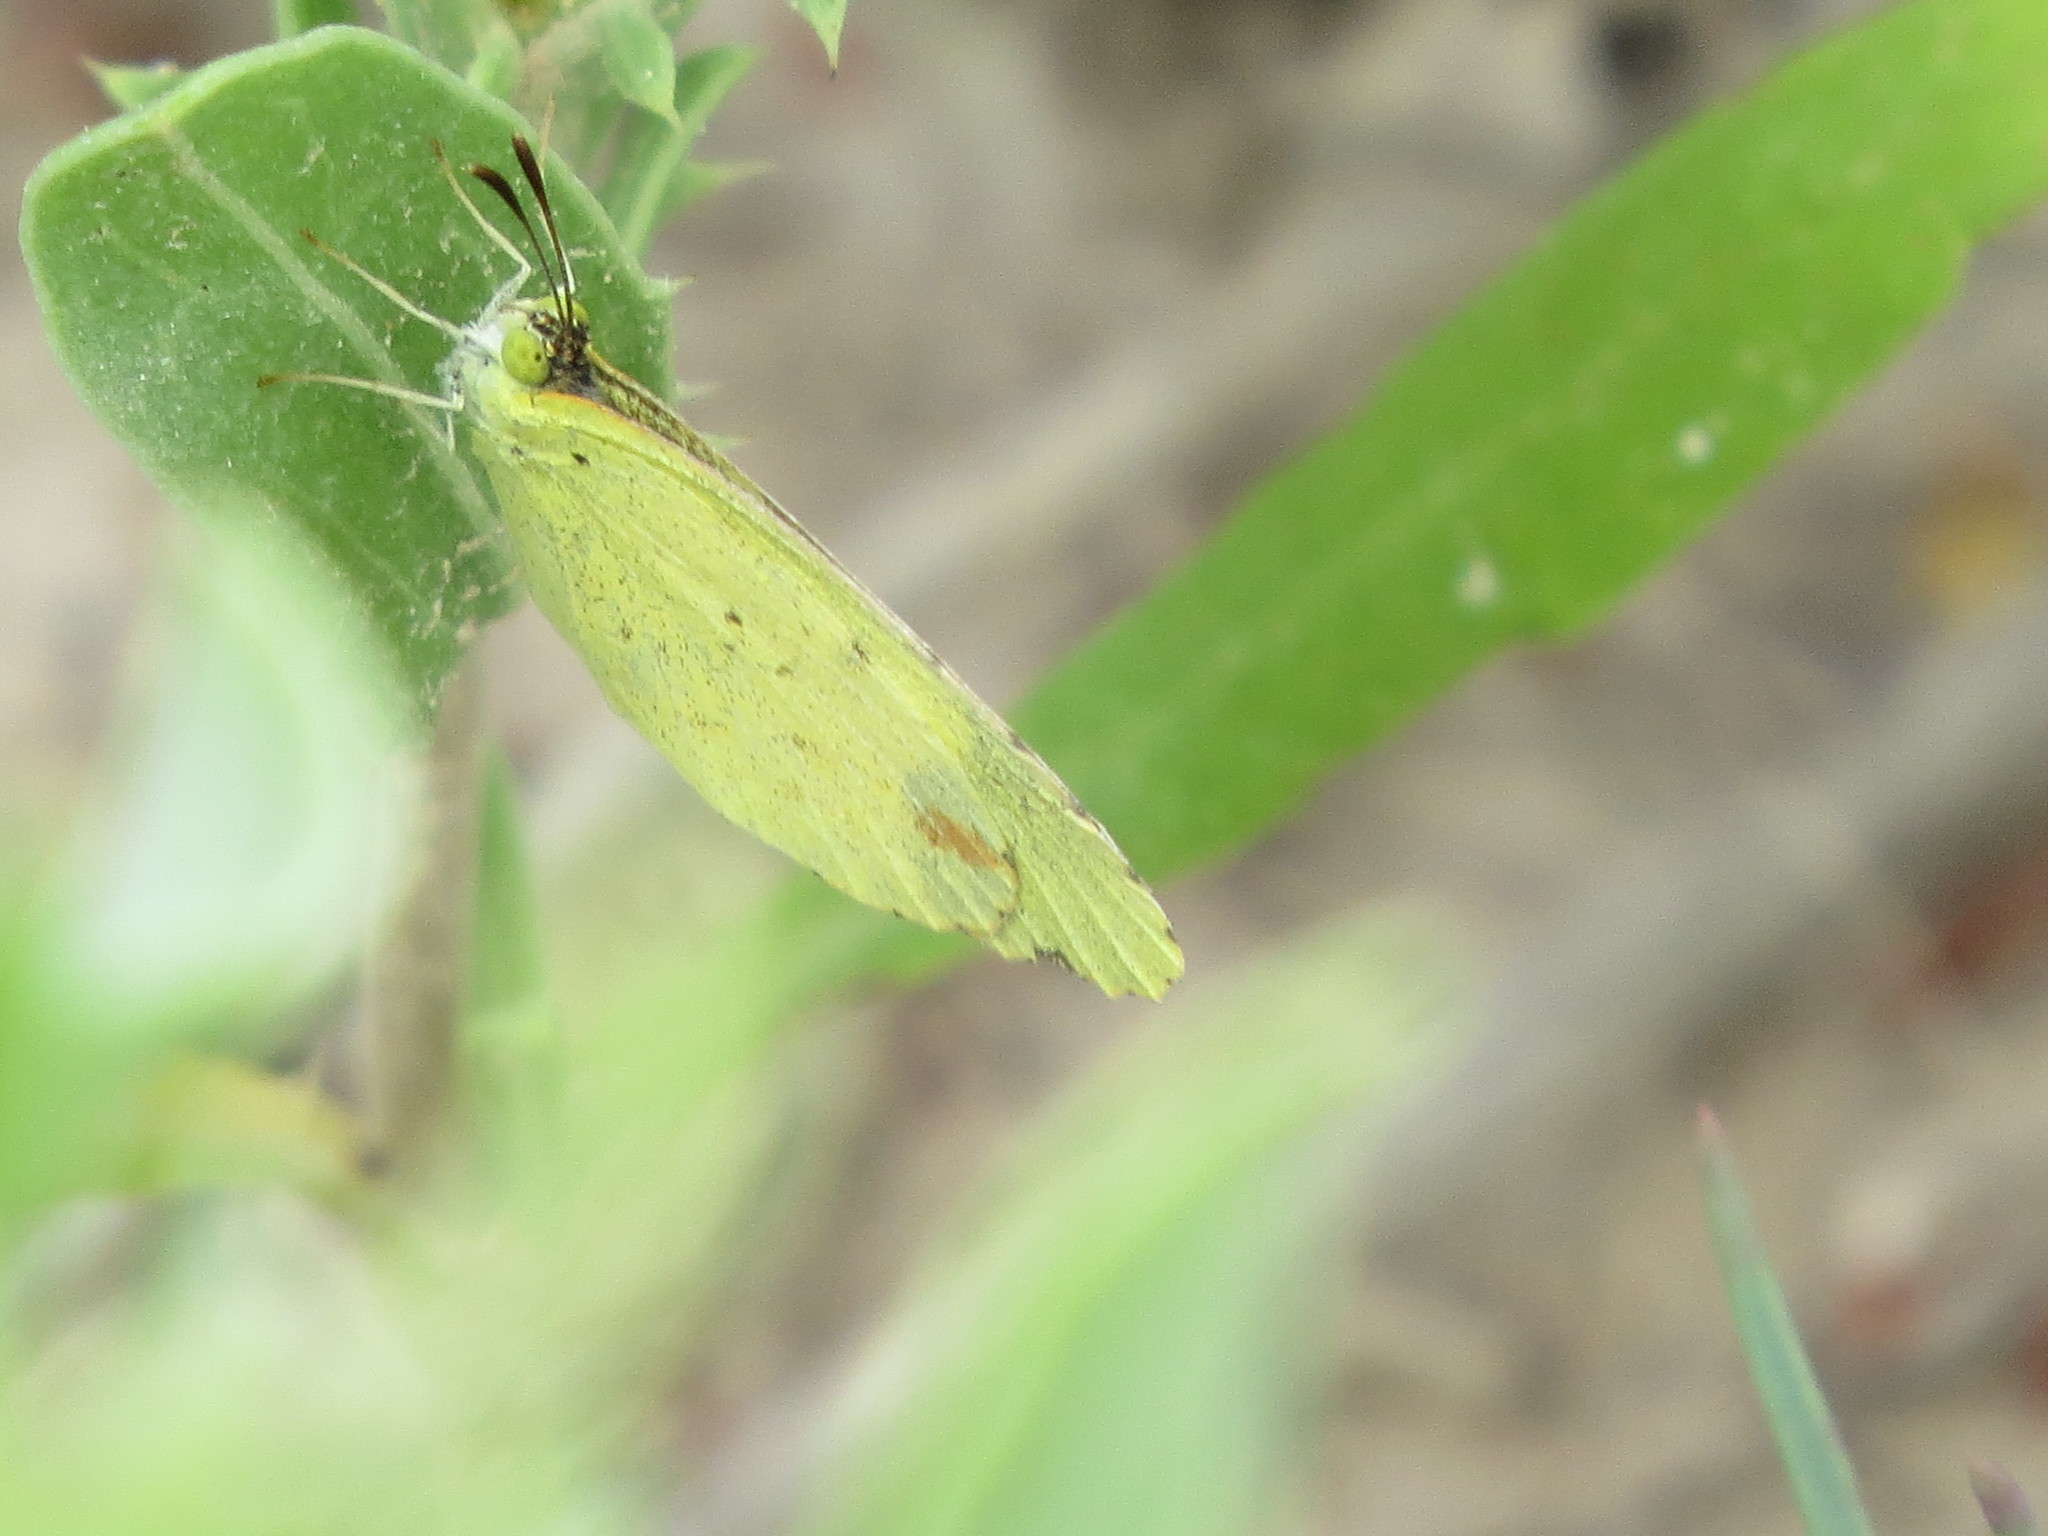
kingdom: Animalia
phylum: Arthropoda
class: Insecta
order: Lepidoptera
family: Pieridae
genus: Pyrisitia
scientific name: Pyrisitia lisa
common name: Little yellow
